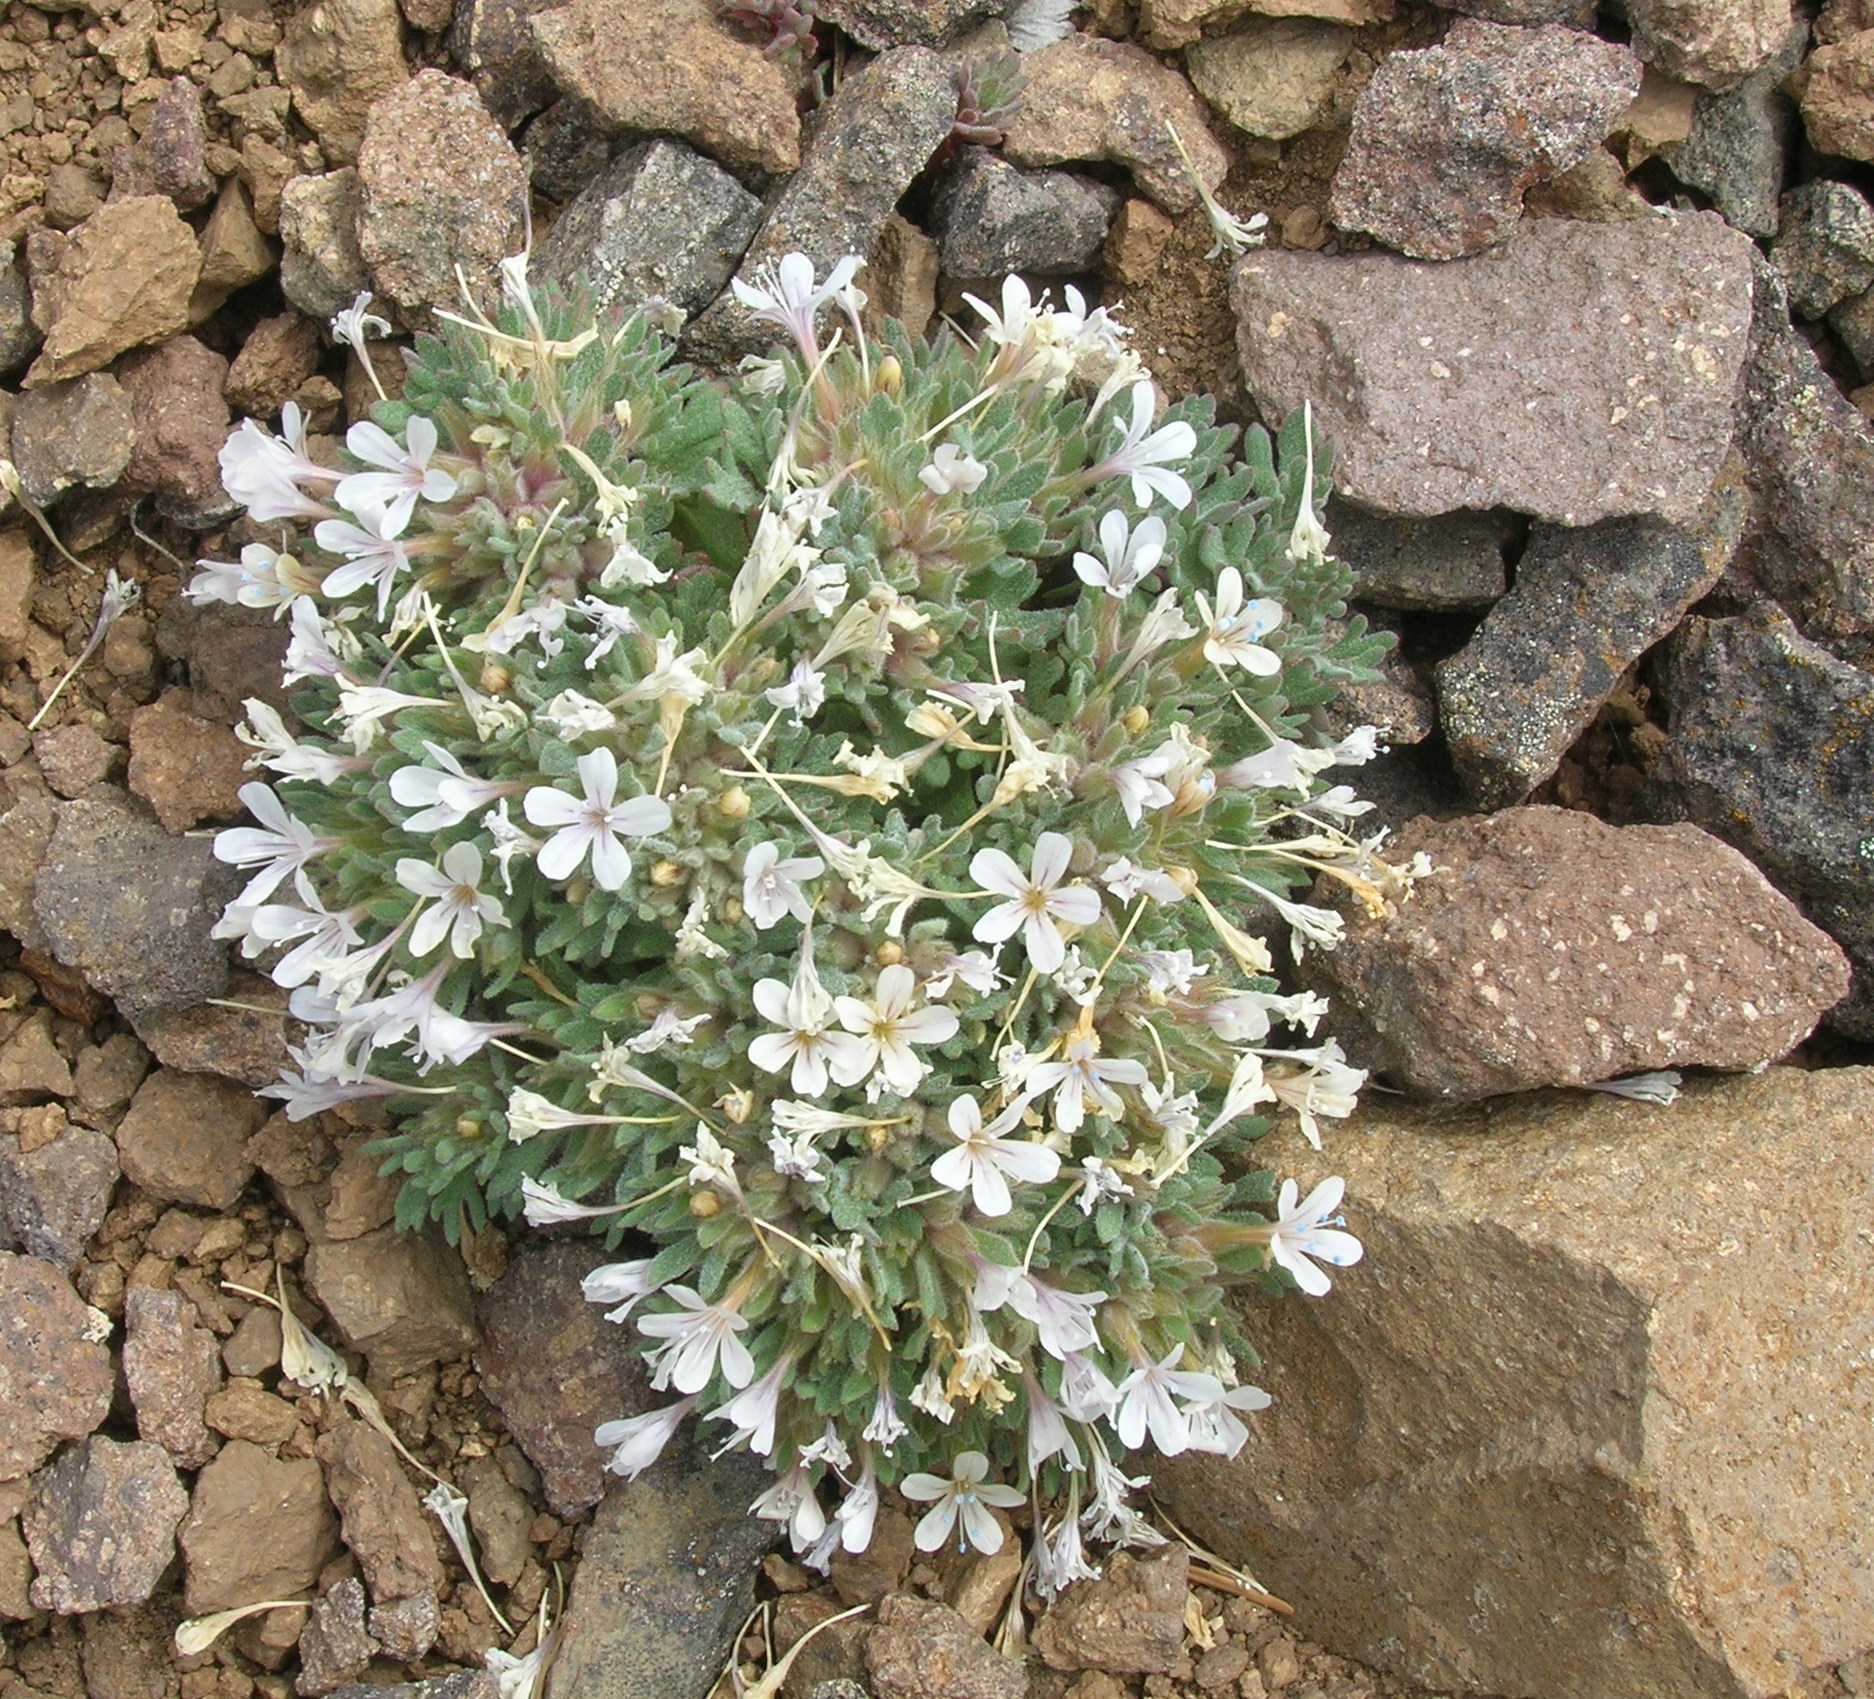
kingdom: Plantae
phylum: Tracheophyta
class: Magnoliopsida
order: Ericales
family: Polemoniaceae
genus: Collomia
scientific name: Collomia larsenii
